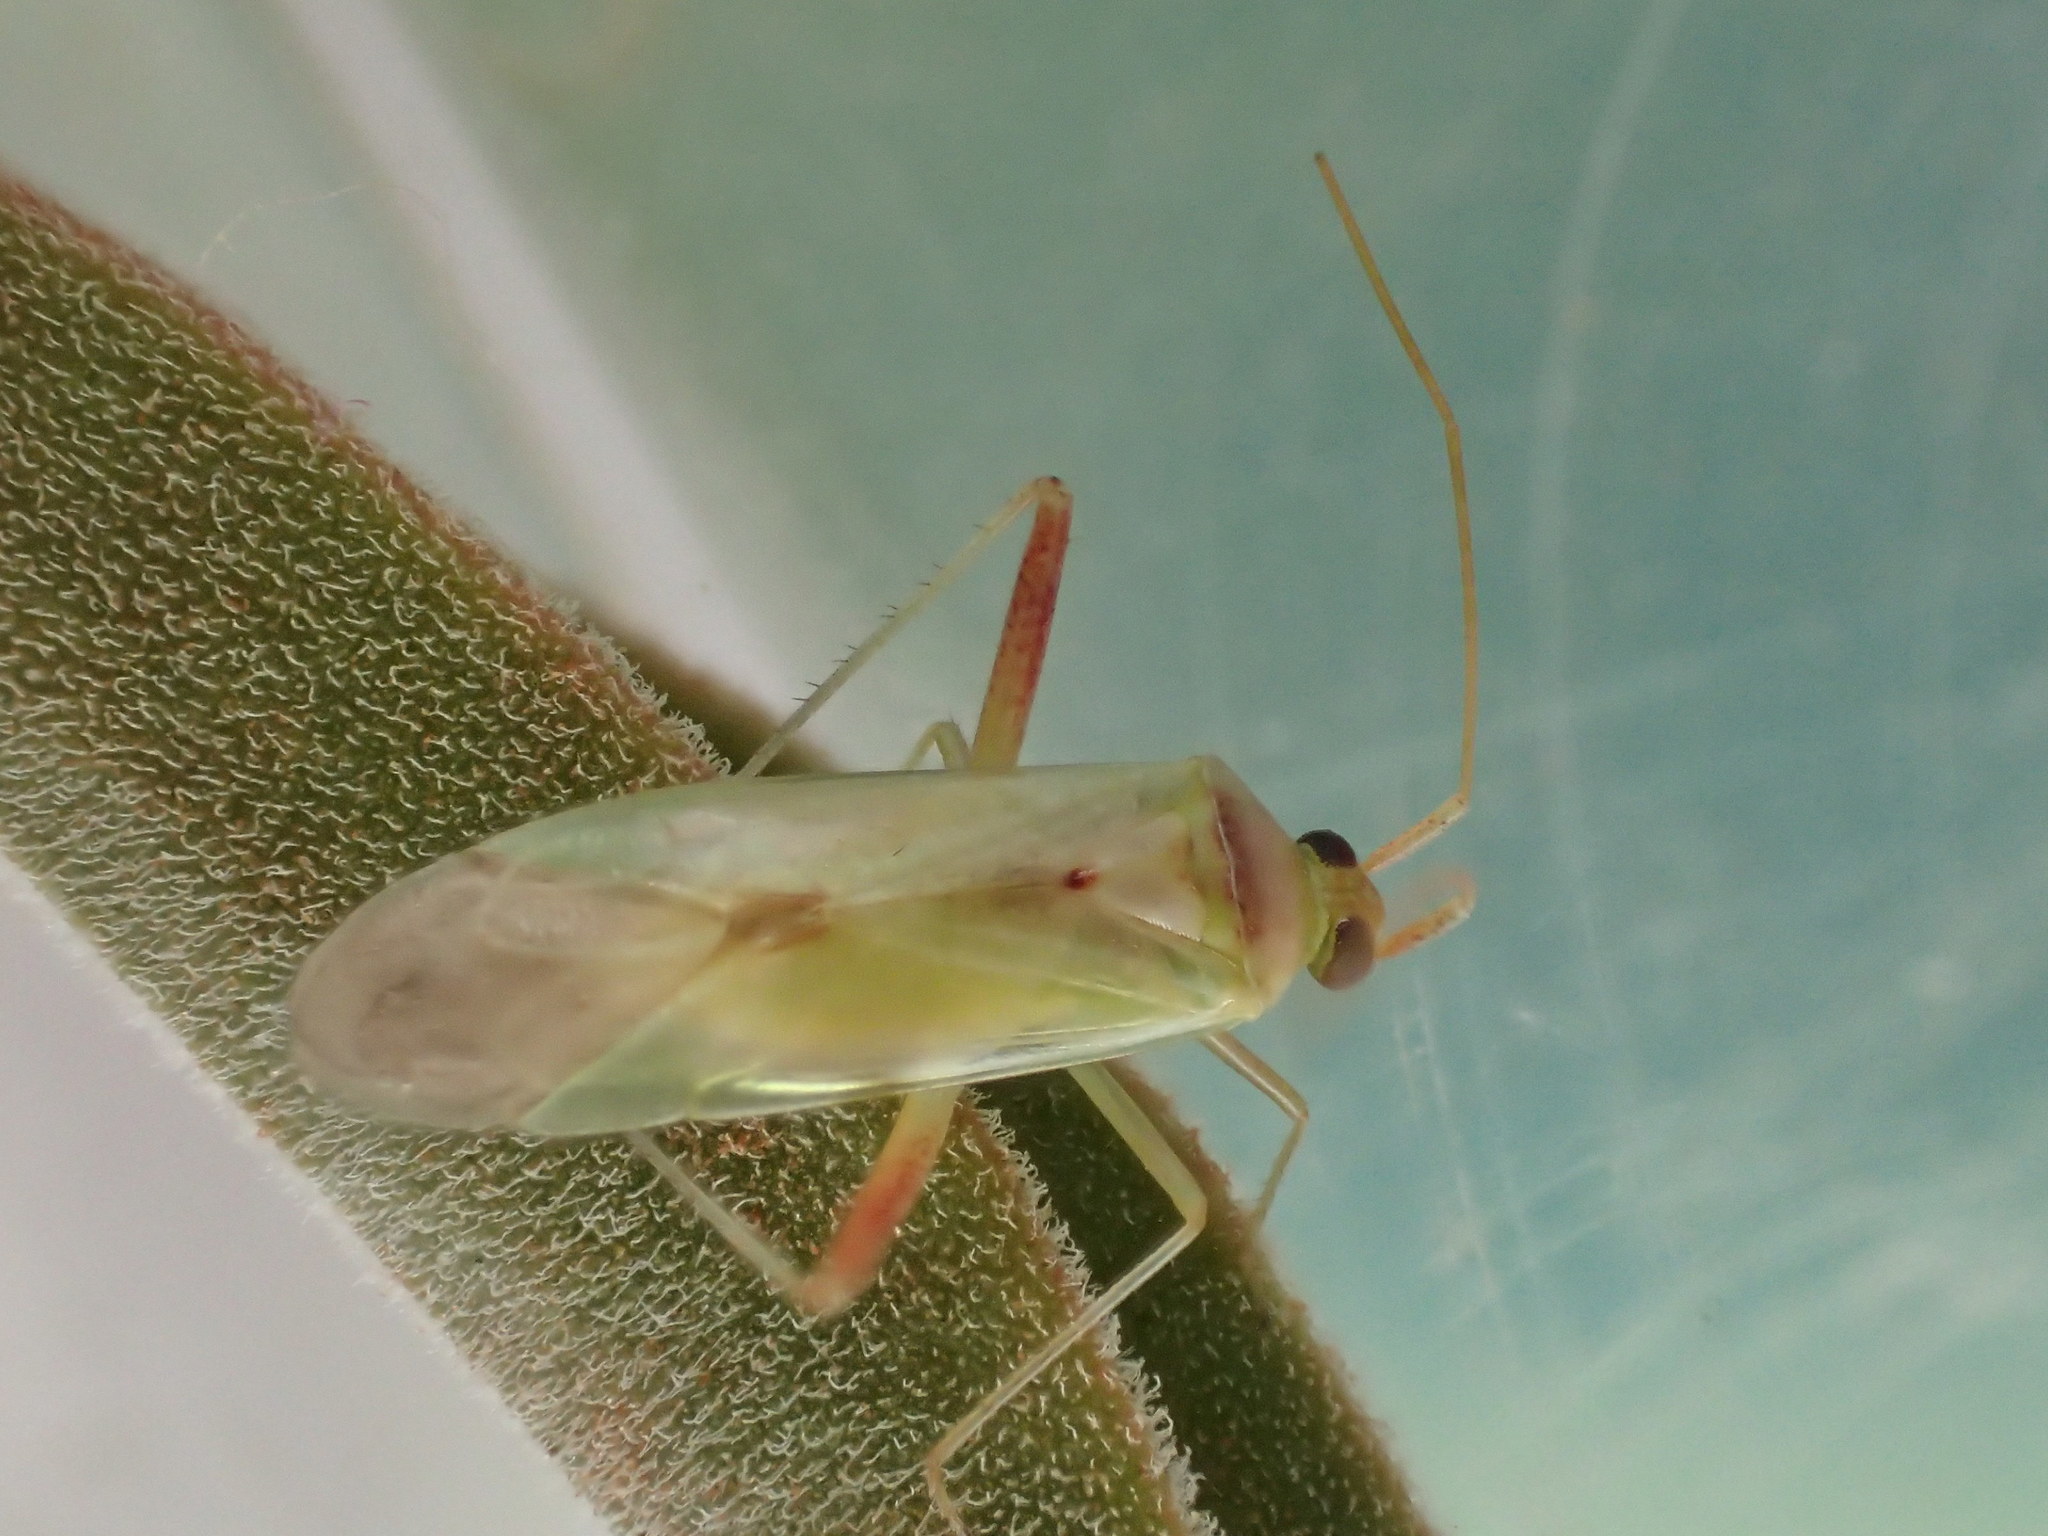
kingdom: Animalia
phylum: Arthropoda
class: Insecta
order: Hemiptera
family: Miridae
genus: Creontiades
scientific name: Creontiades dilutus
